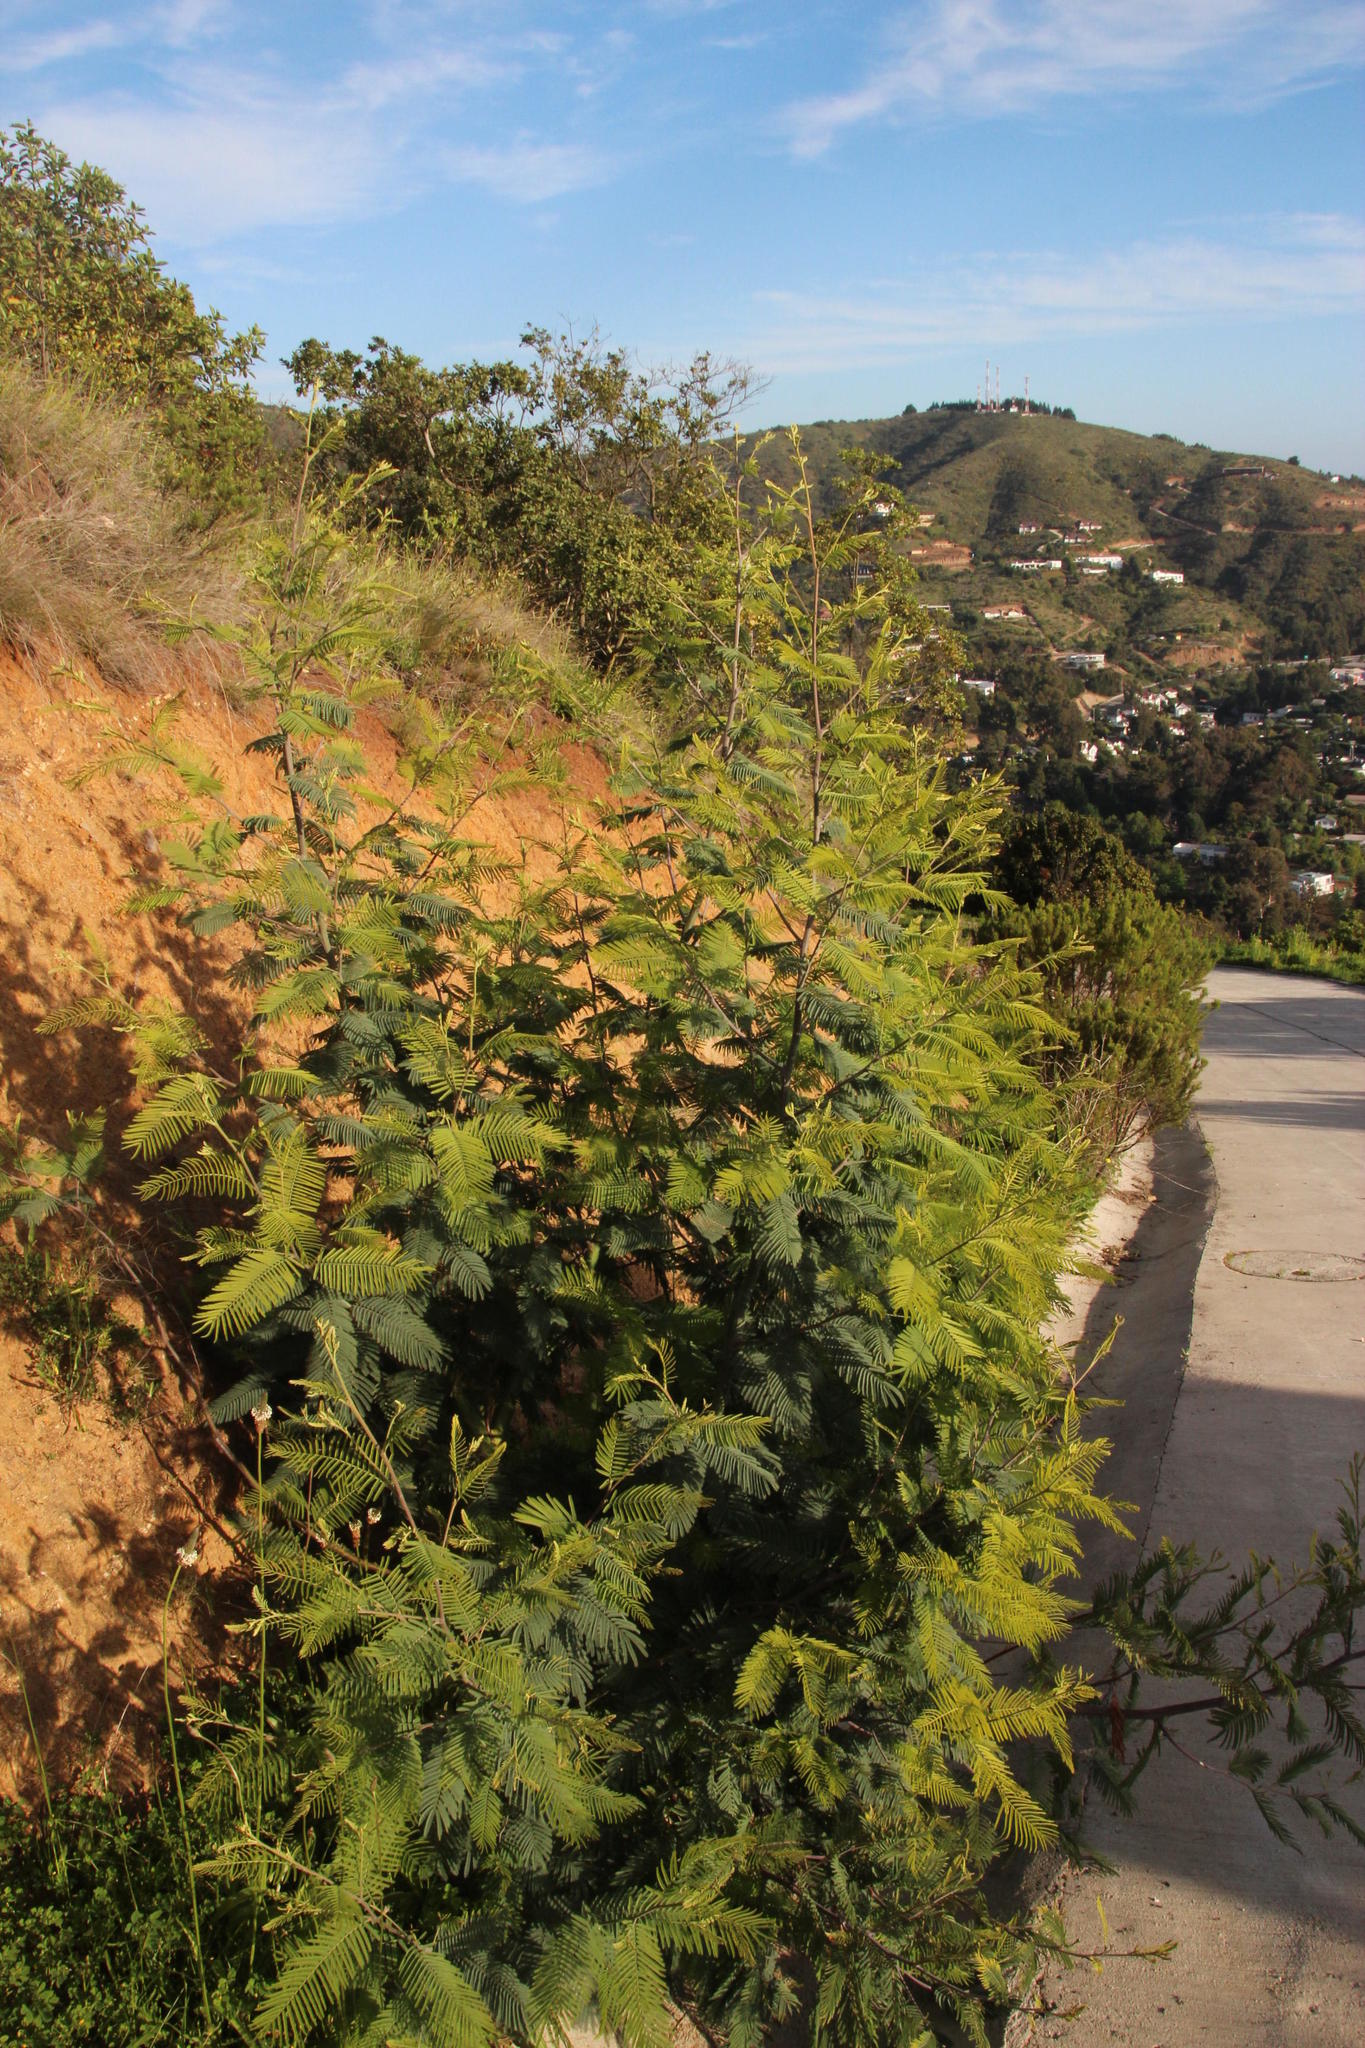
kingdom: Plantae
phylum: Tracheophyta
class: Magnoliopsida
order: Fabales
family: Fabaceae
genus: Acacia
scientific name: Acacia dealbata
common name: Silver wattle
